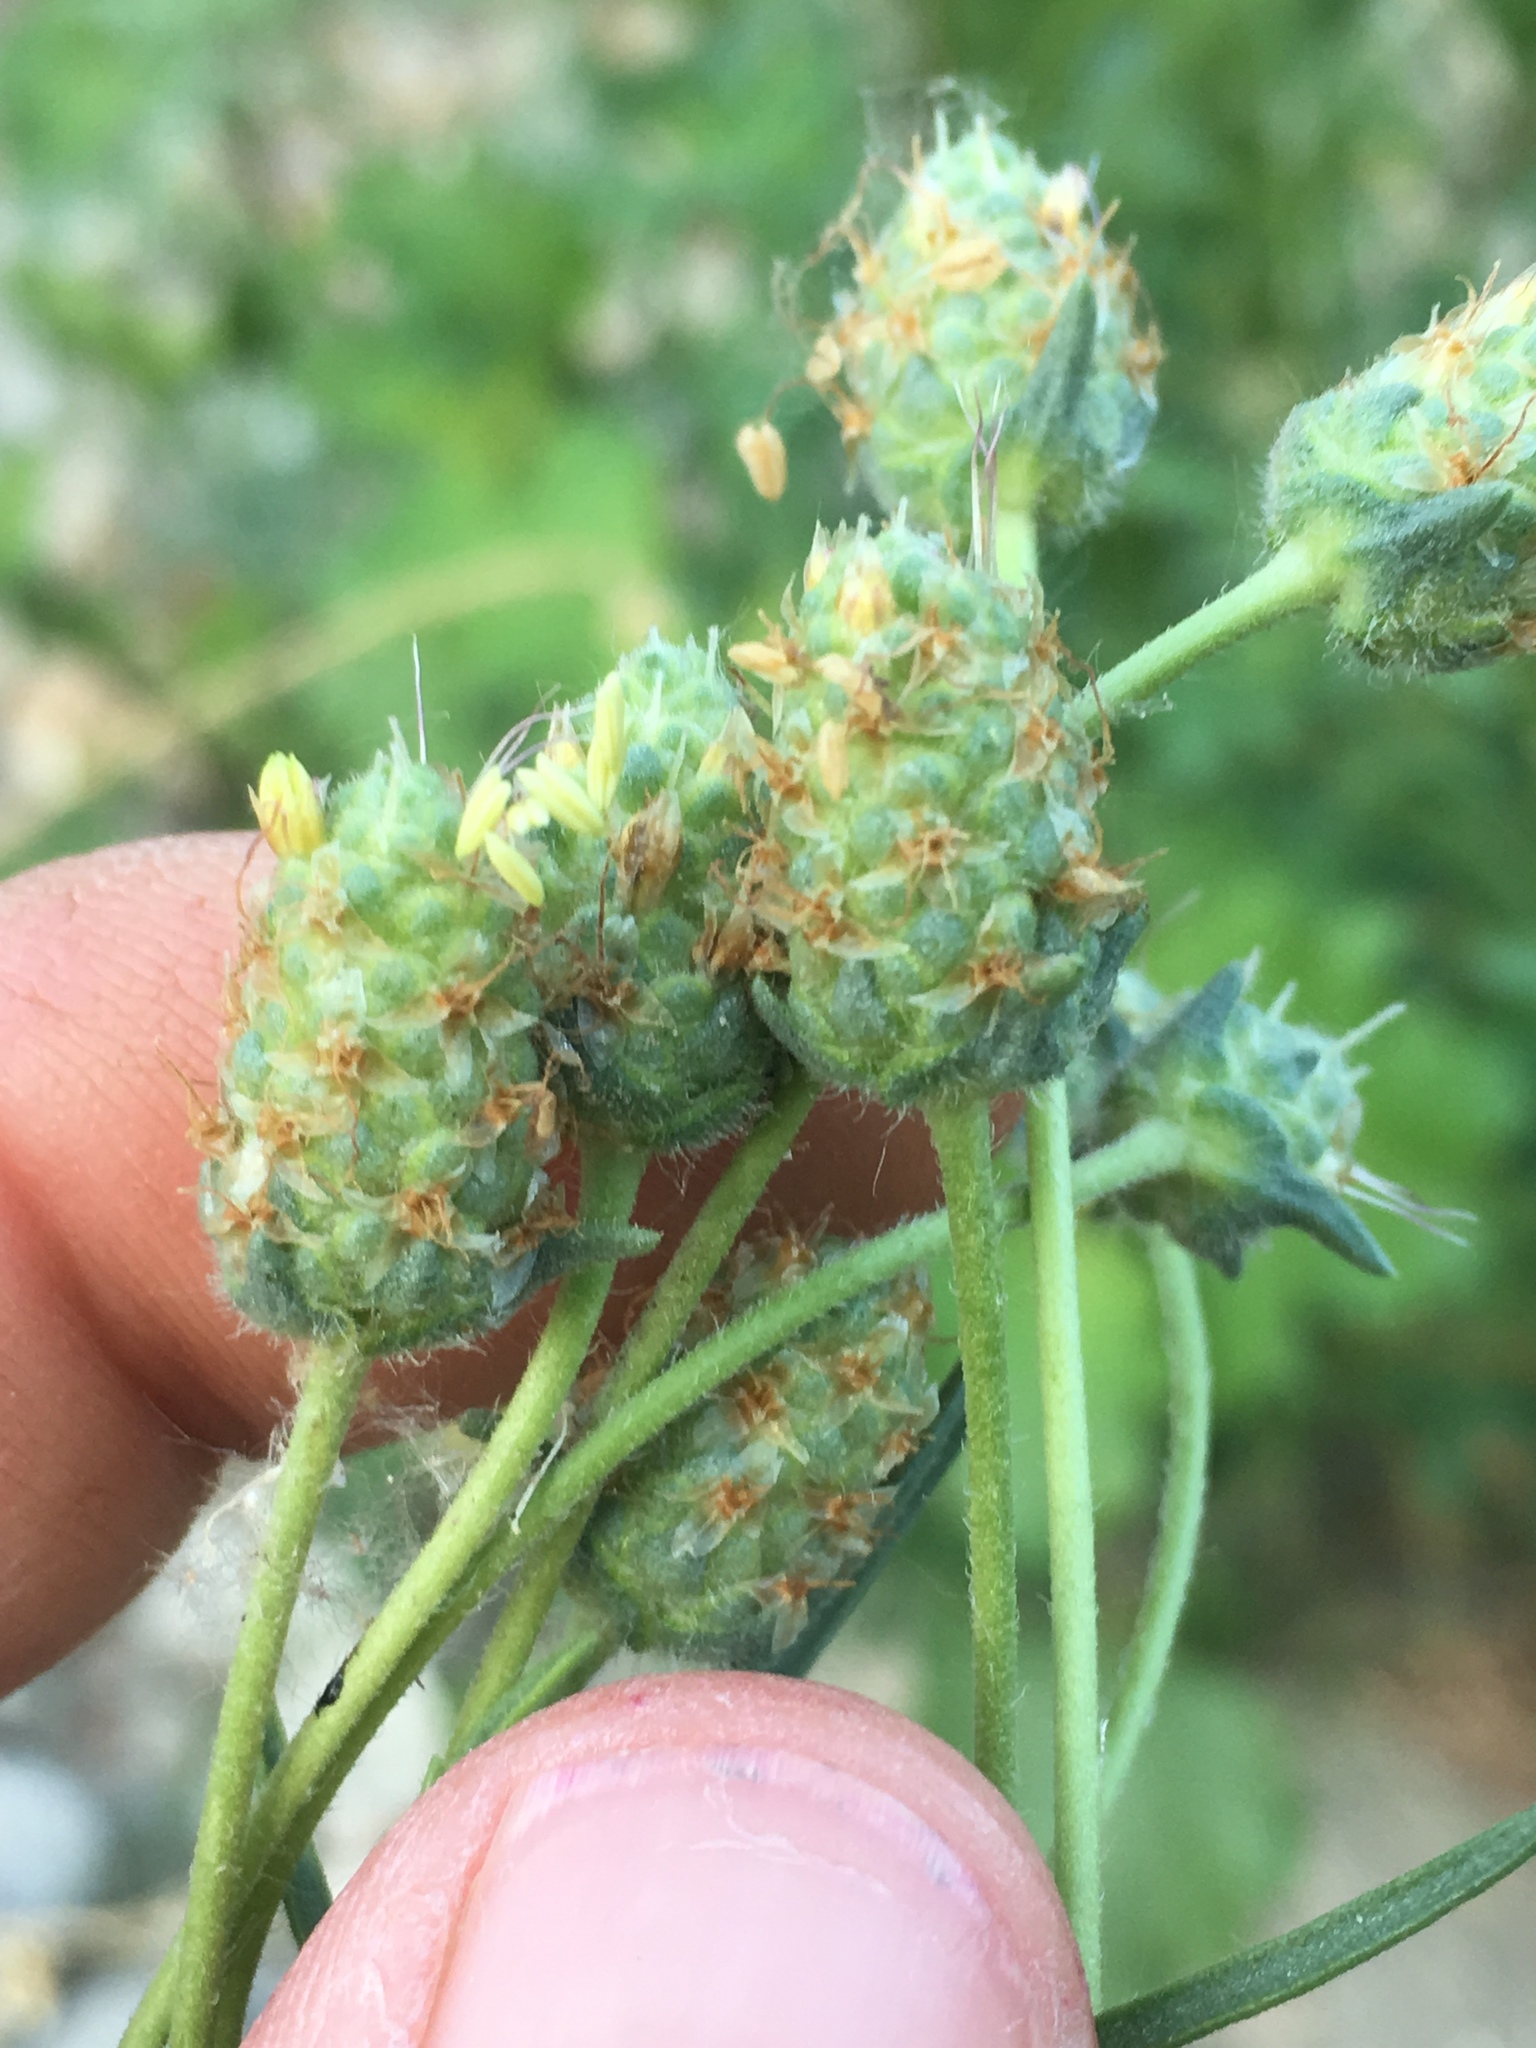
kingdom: Plantae
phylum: Tracheophyta
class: Magnoliopsida
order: Lamiales
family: Plantaginaceae
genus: Plantago
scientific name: Plantago arenaria
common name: Branched plantain
